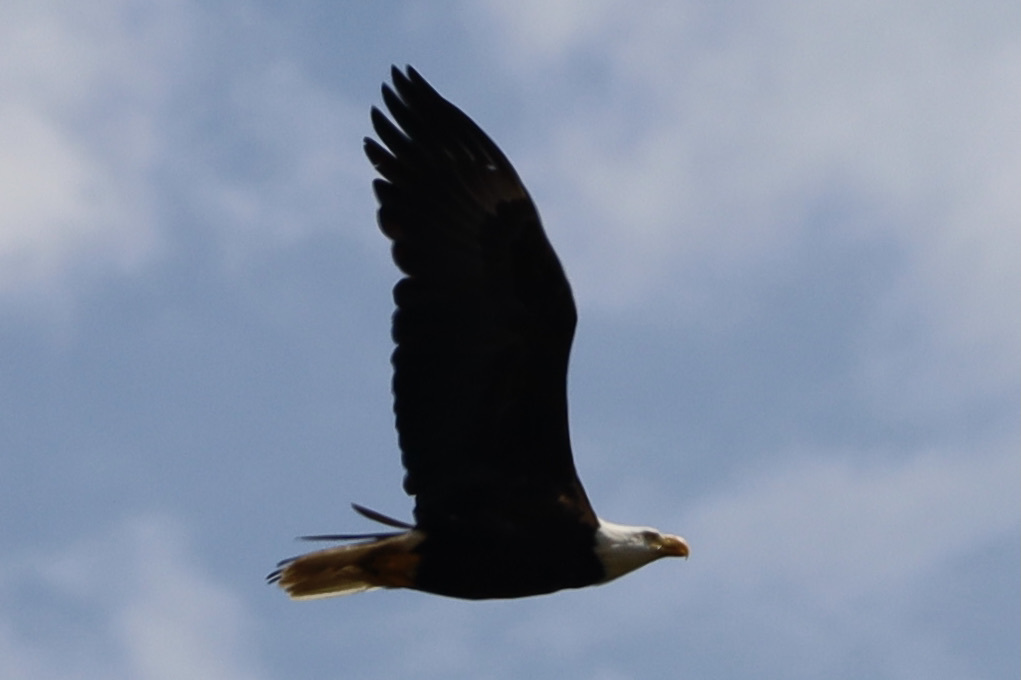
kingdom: Animalia
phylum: Chordata
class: Aves
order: Accipitriformes
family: Accipitridae
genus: Haliaeetus
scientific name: Haliaeetus leucocephalus
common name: Bald eagle
